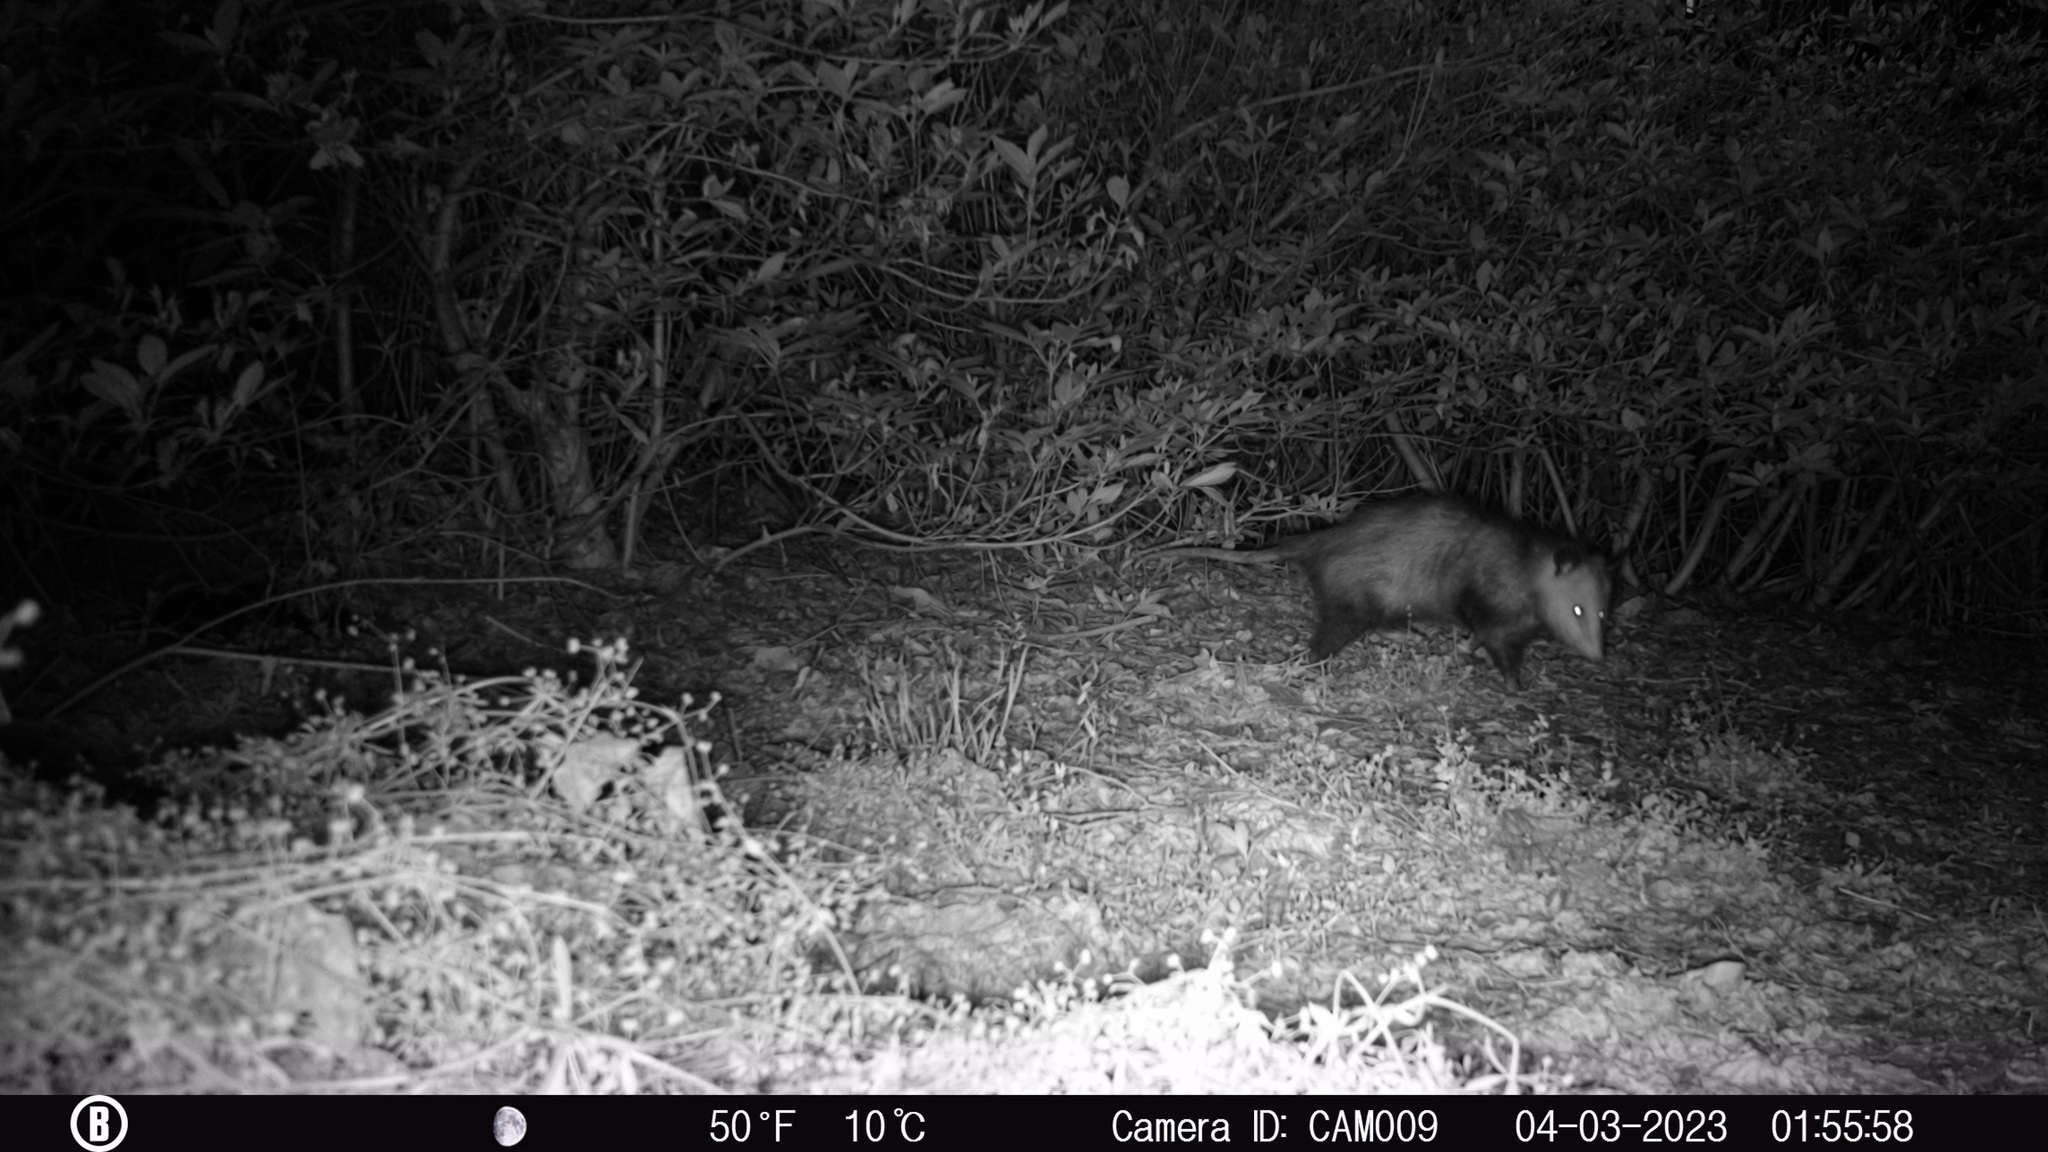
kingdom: Animalia
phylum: Chordata
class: Mammalia
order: Didelphimorphia
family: Didelphidae
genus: Didelphis
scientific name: Didelphis virginiana
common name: Virginia opossum
